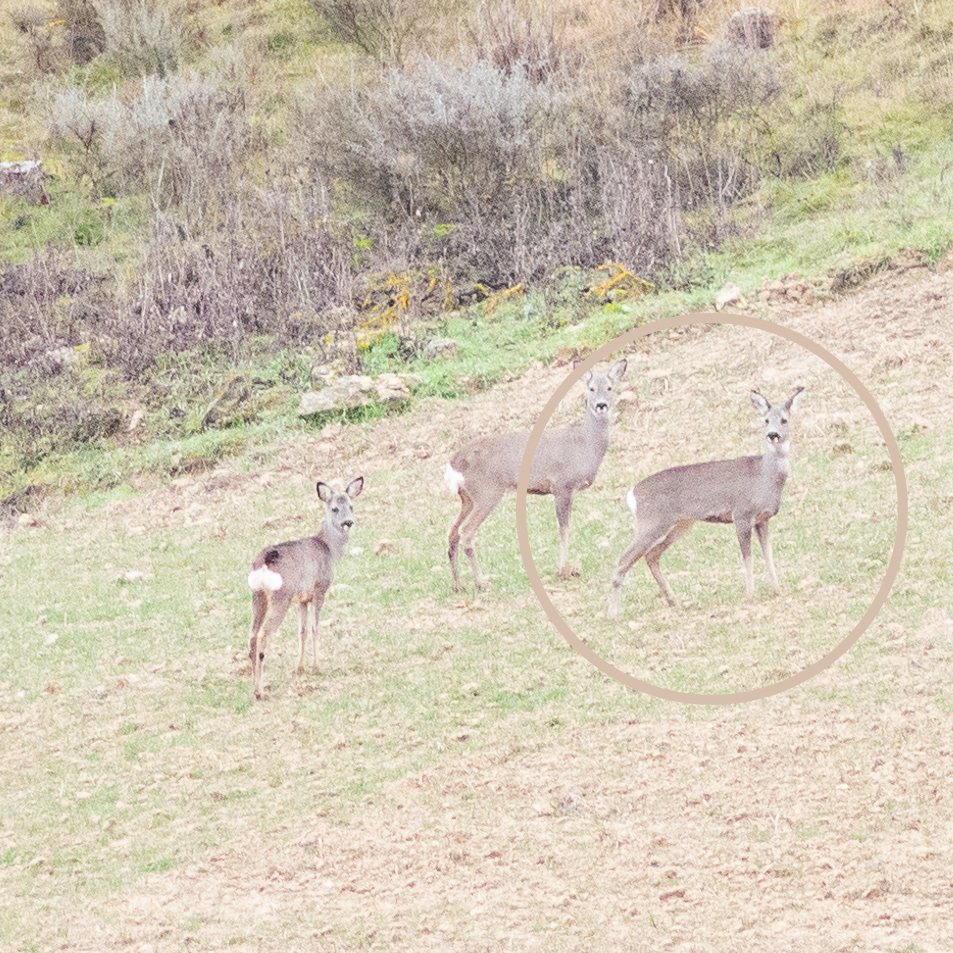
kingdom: Animalia
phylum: Chordata
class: Mammalia
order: Artiodactyla
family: Cervidae
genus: Capreolus
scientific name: Capreolus capreolus
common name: Western roe deer
